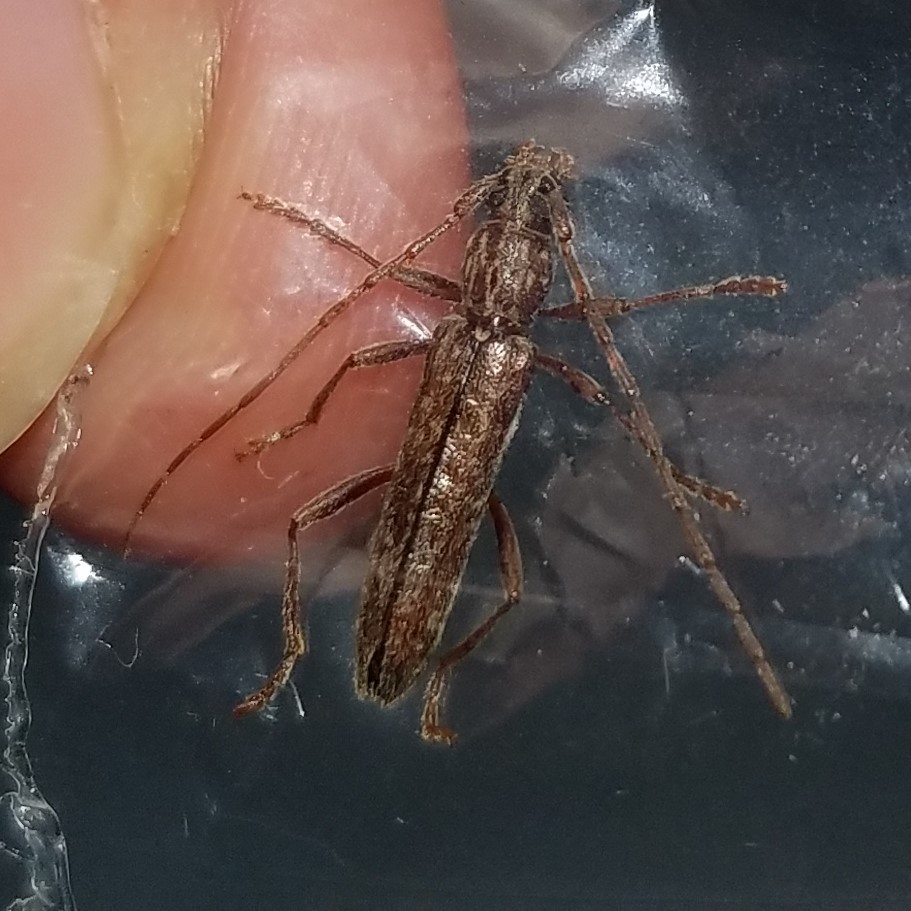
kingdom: Animalia
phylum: Arthropoda
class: Insecta
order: Coleoptera
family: Cerambycidae
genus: Anelaphus
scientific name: Anelaphus villosus
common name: Twig pruner
